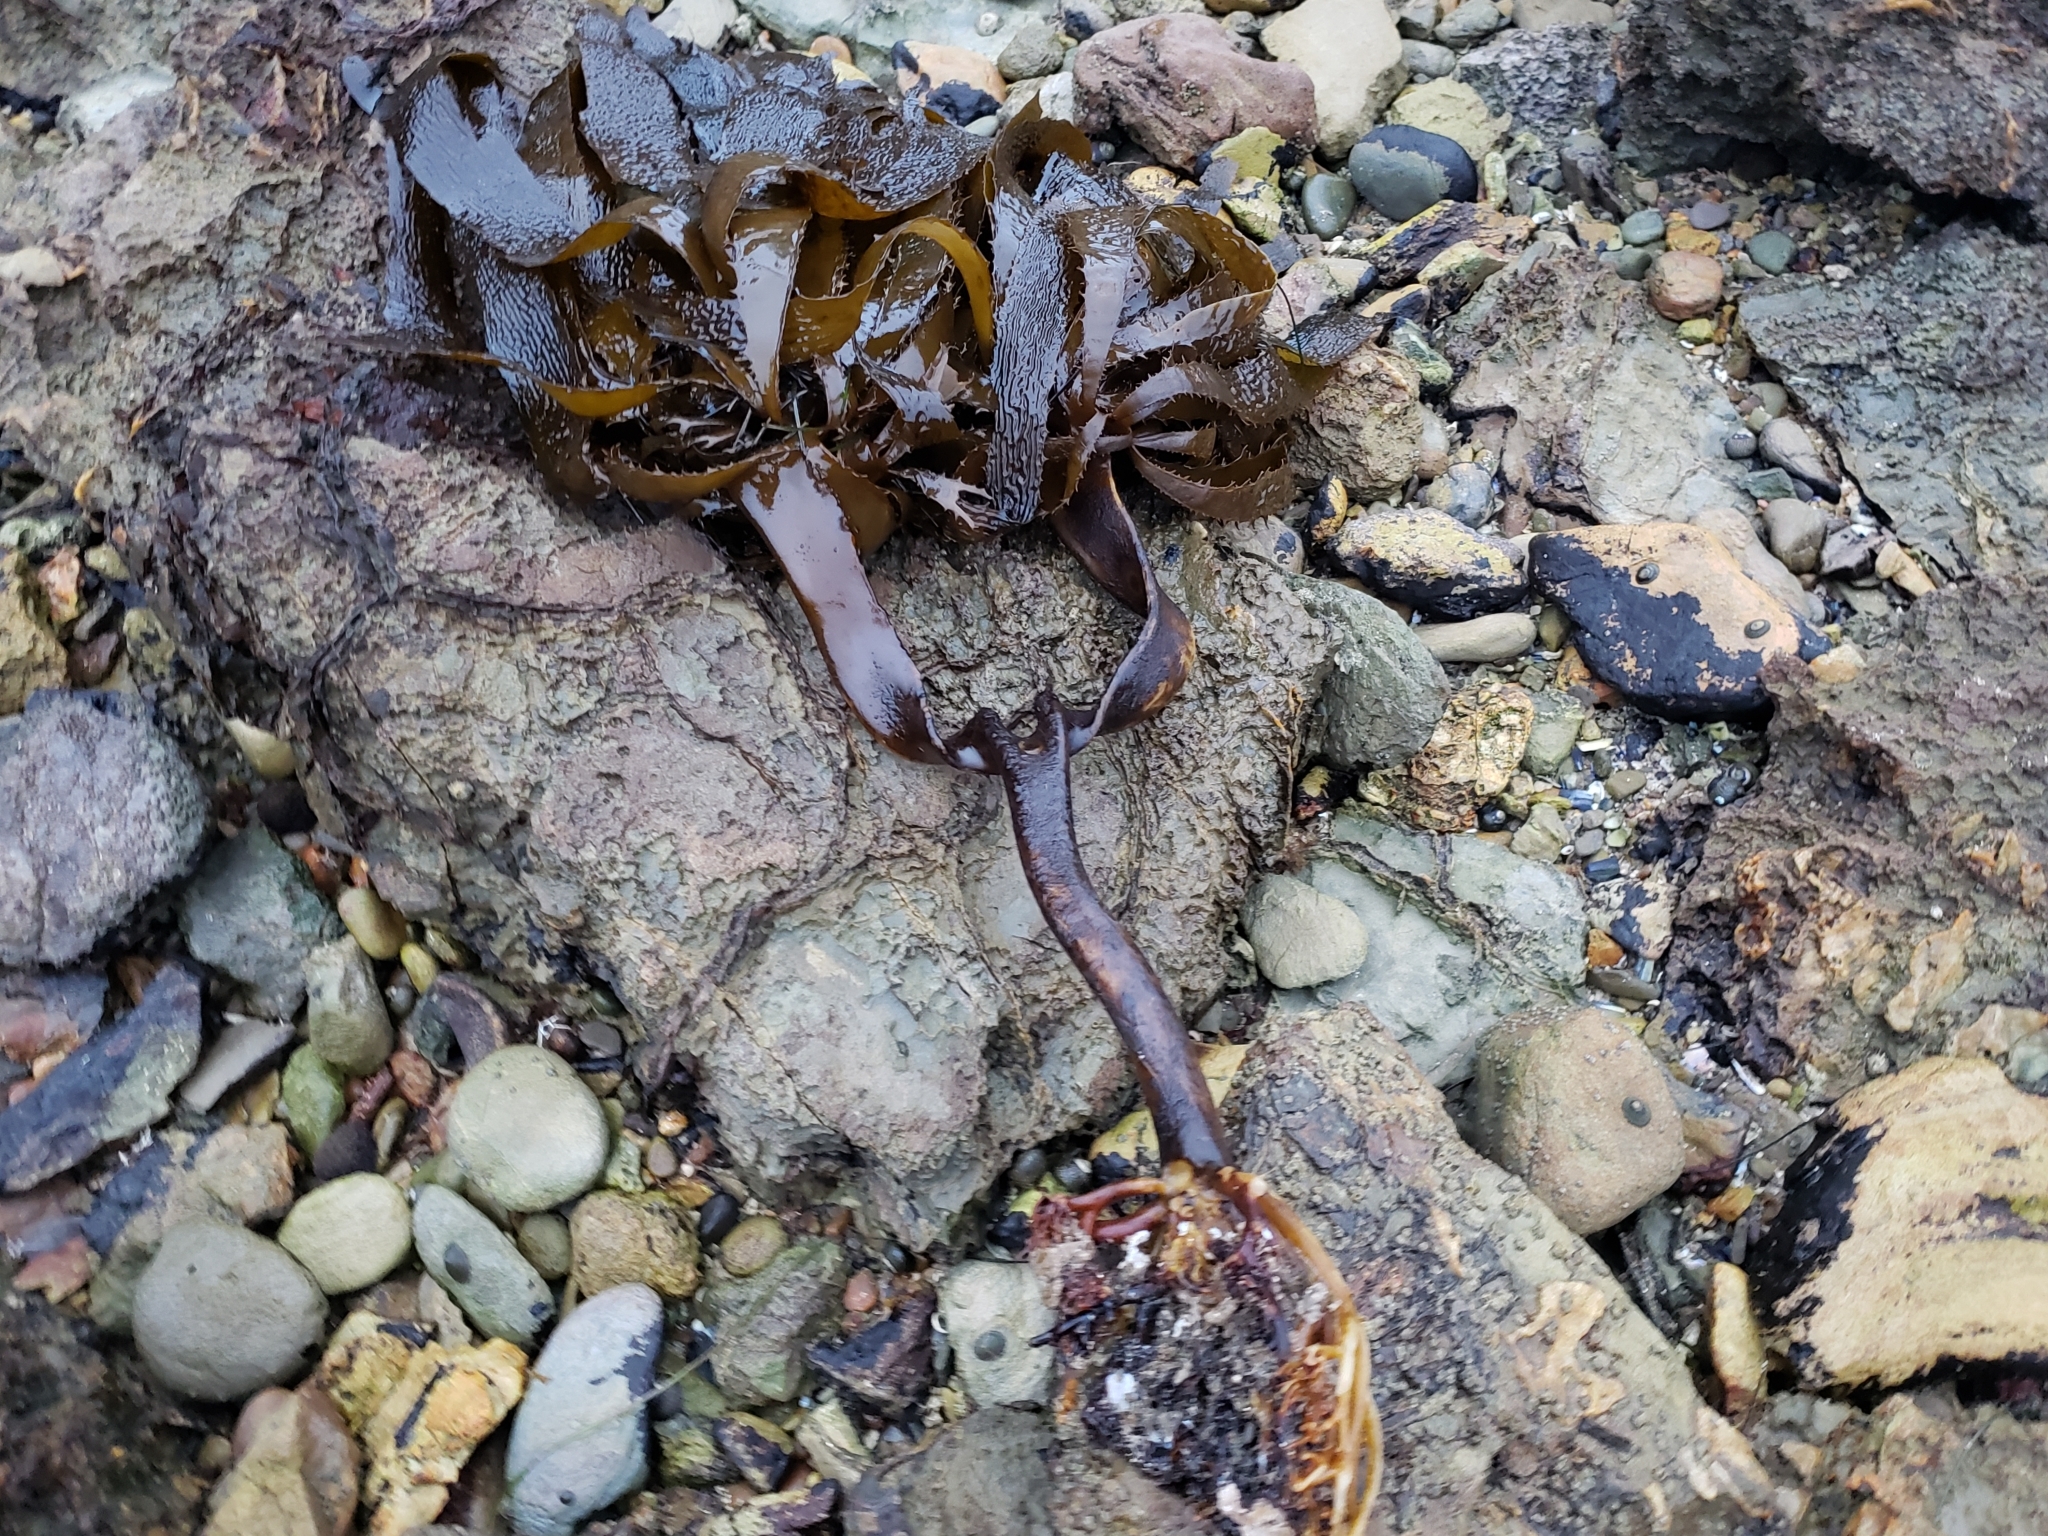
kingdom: Chromista
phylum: Ochrophyta
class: Phaeophyceae
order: Laminariales
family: Lessoniaceae
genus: Eisenia
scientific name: Eisenia arborea
